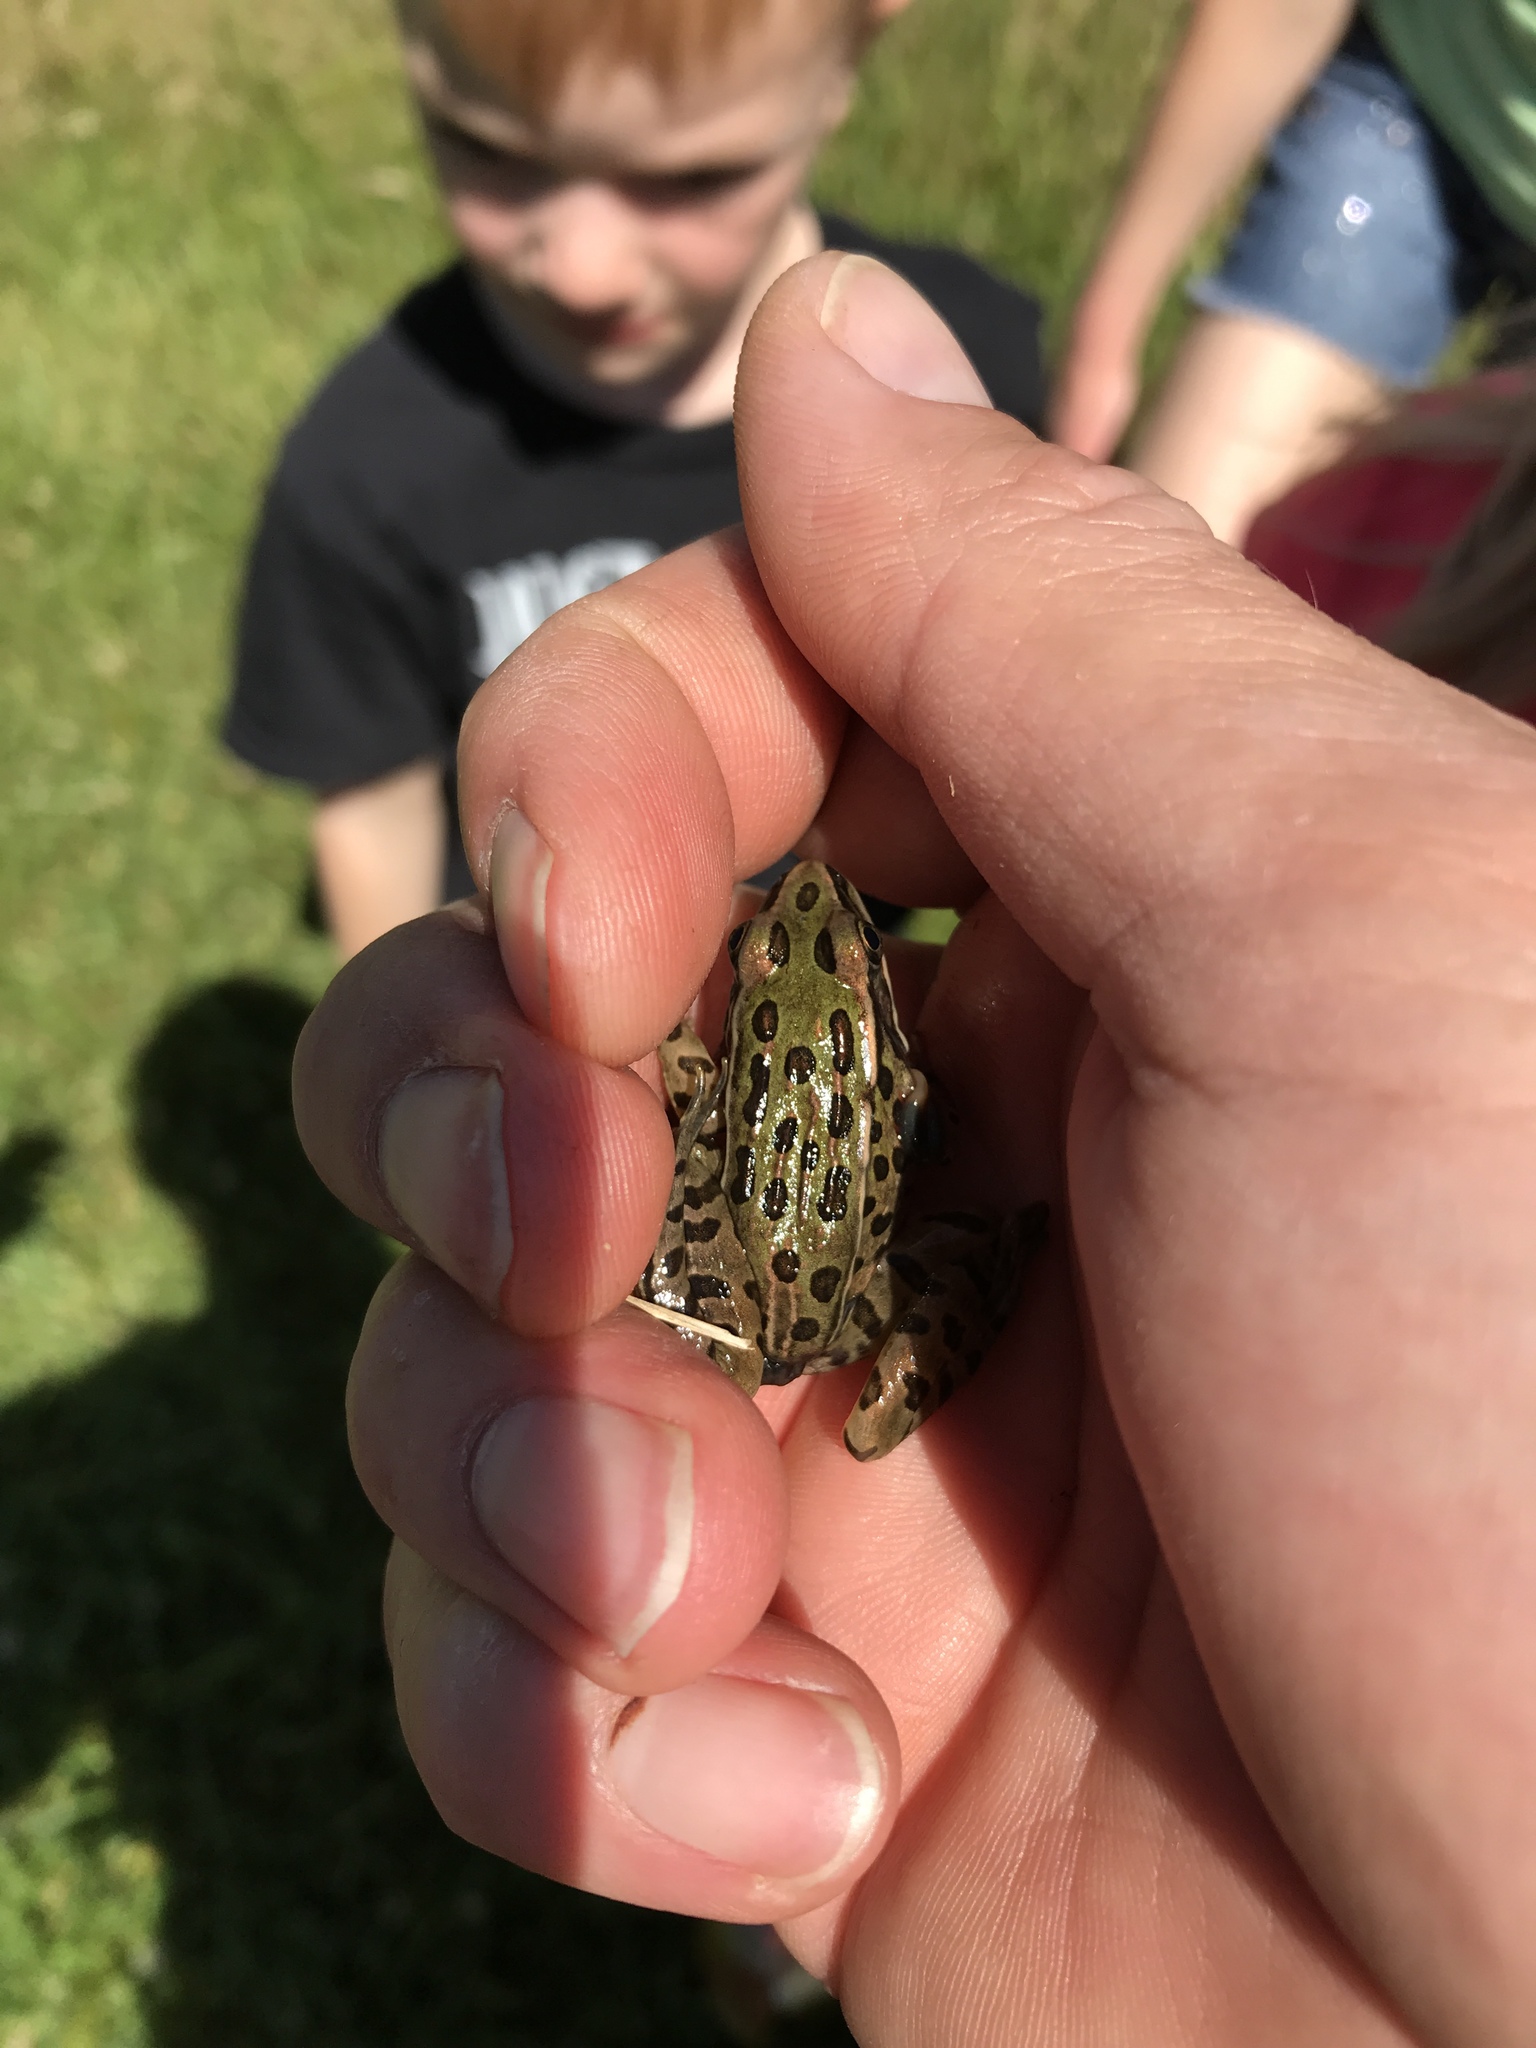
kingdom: Animalia
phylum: Chordata
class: Amphibia
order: Anura
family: Ranidae
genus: Lithobates
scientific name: Lithobates pipiens
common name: Northern leopard frog
